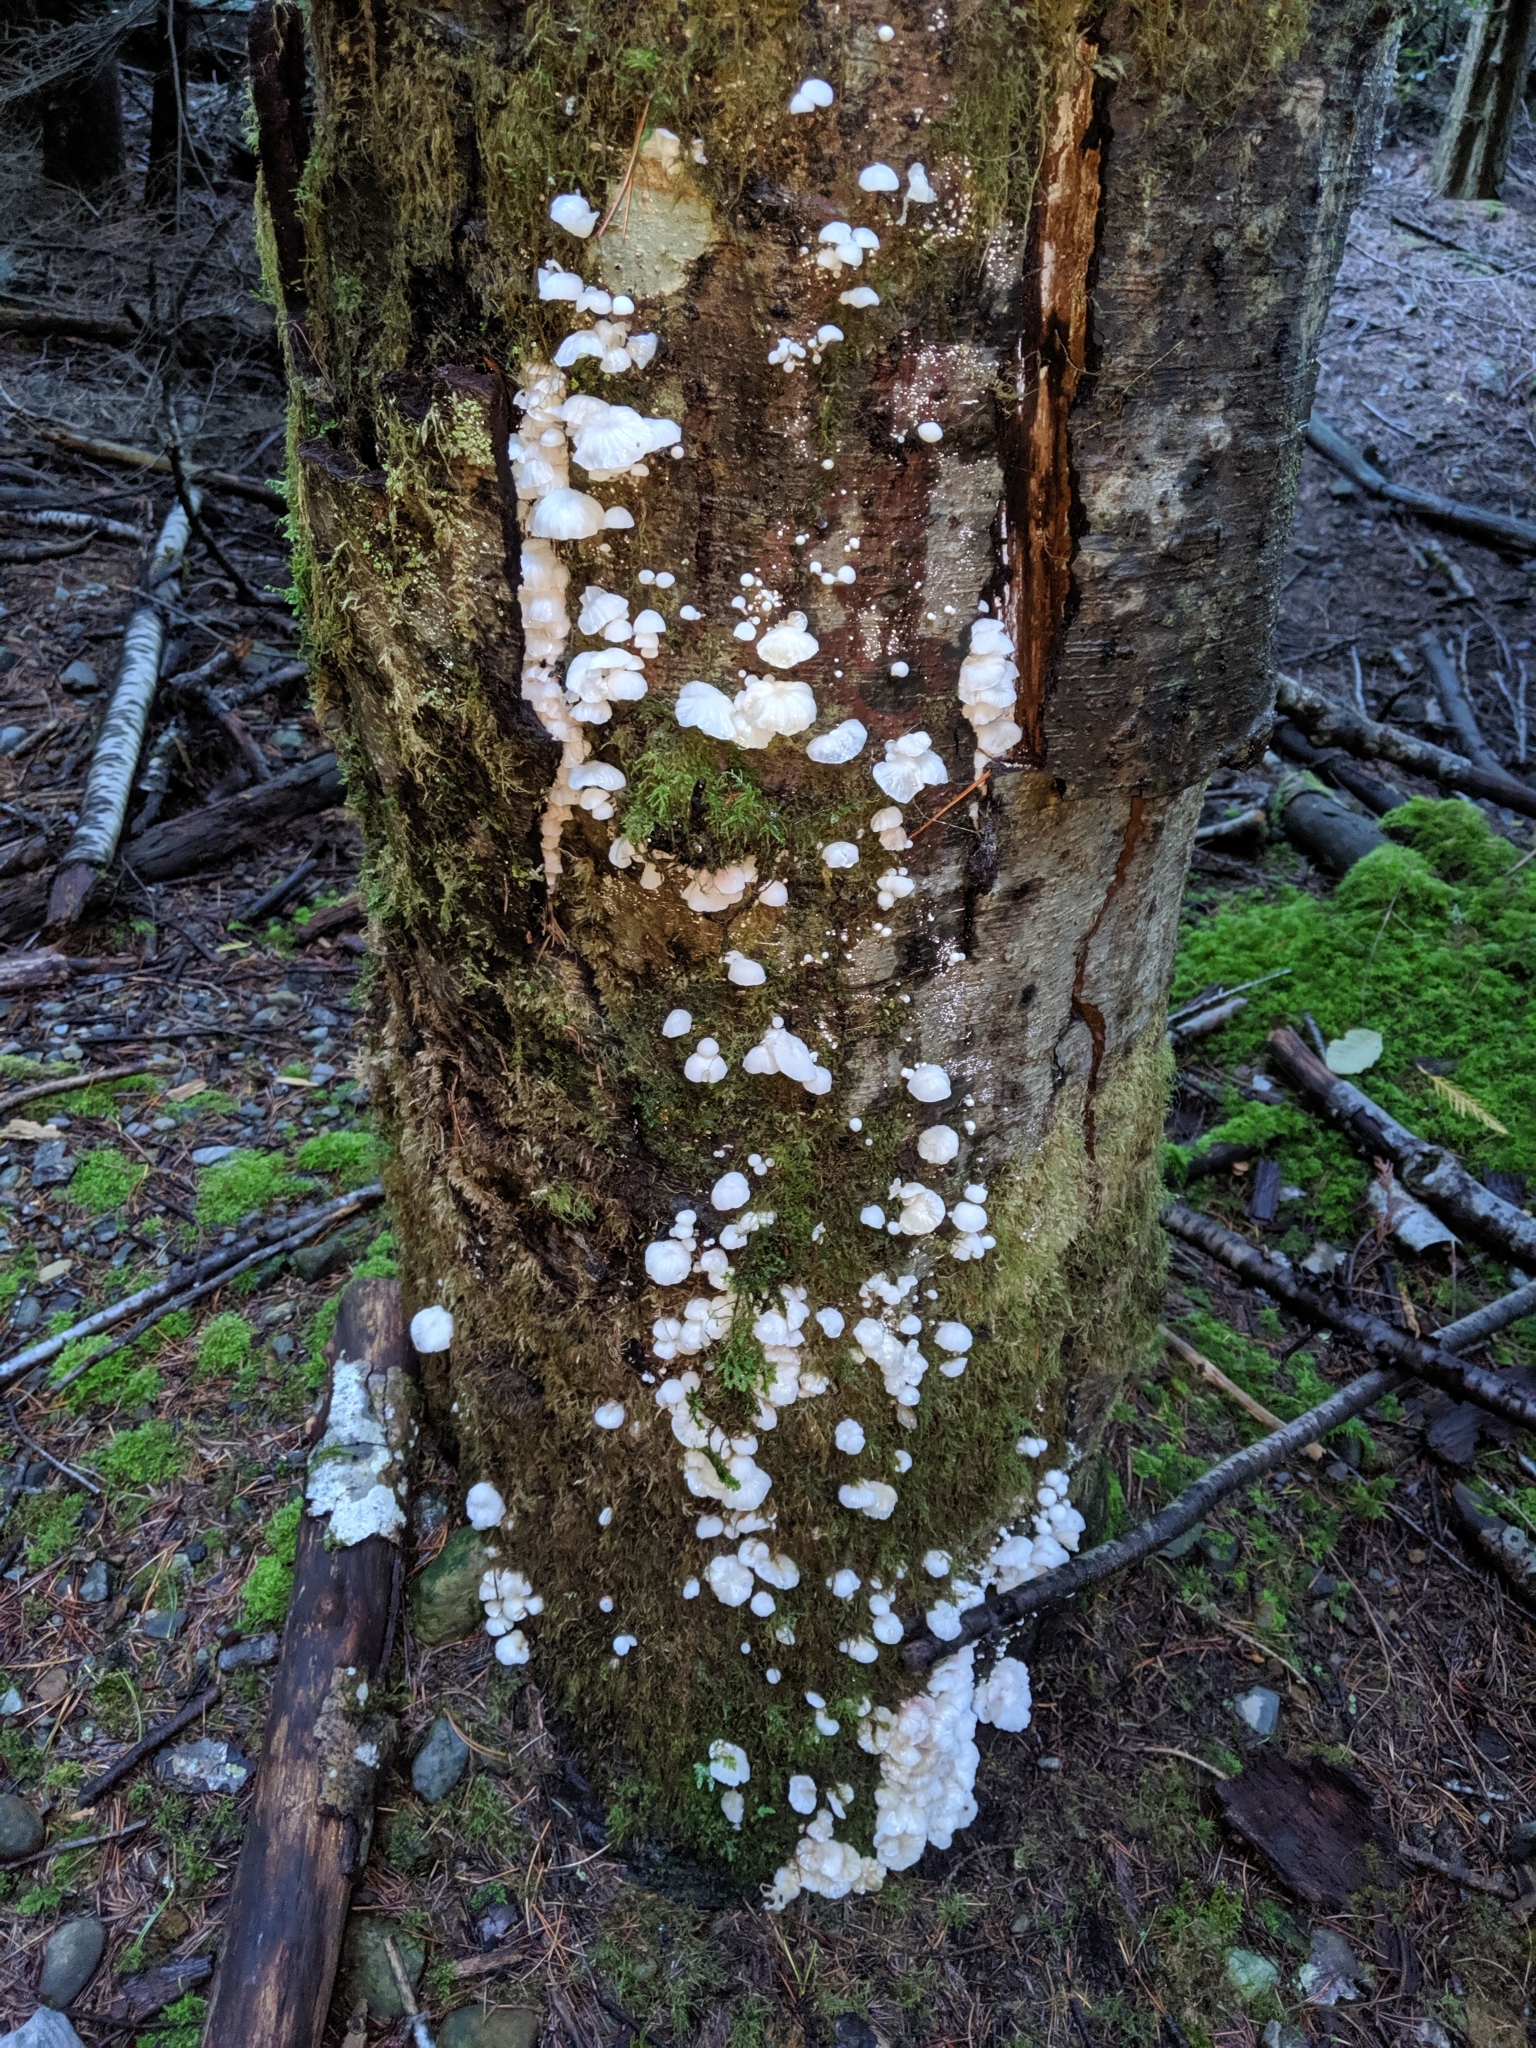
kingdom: Fungi
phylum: Basidiomycota
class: Agaricomycetes
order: Agaricales
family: Omphalotaceae
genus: Marasmiellus
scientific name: Marasmiellus candidus
